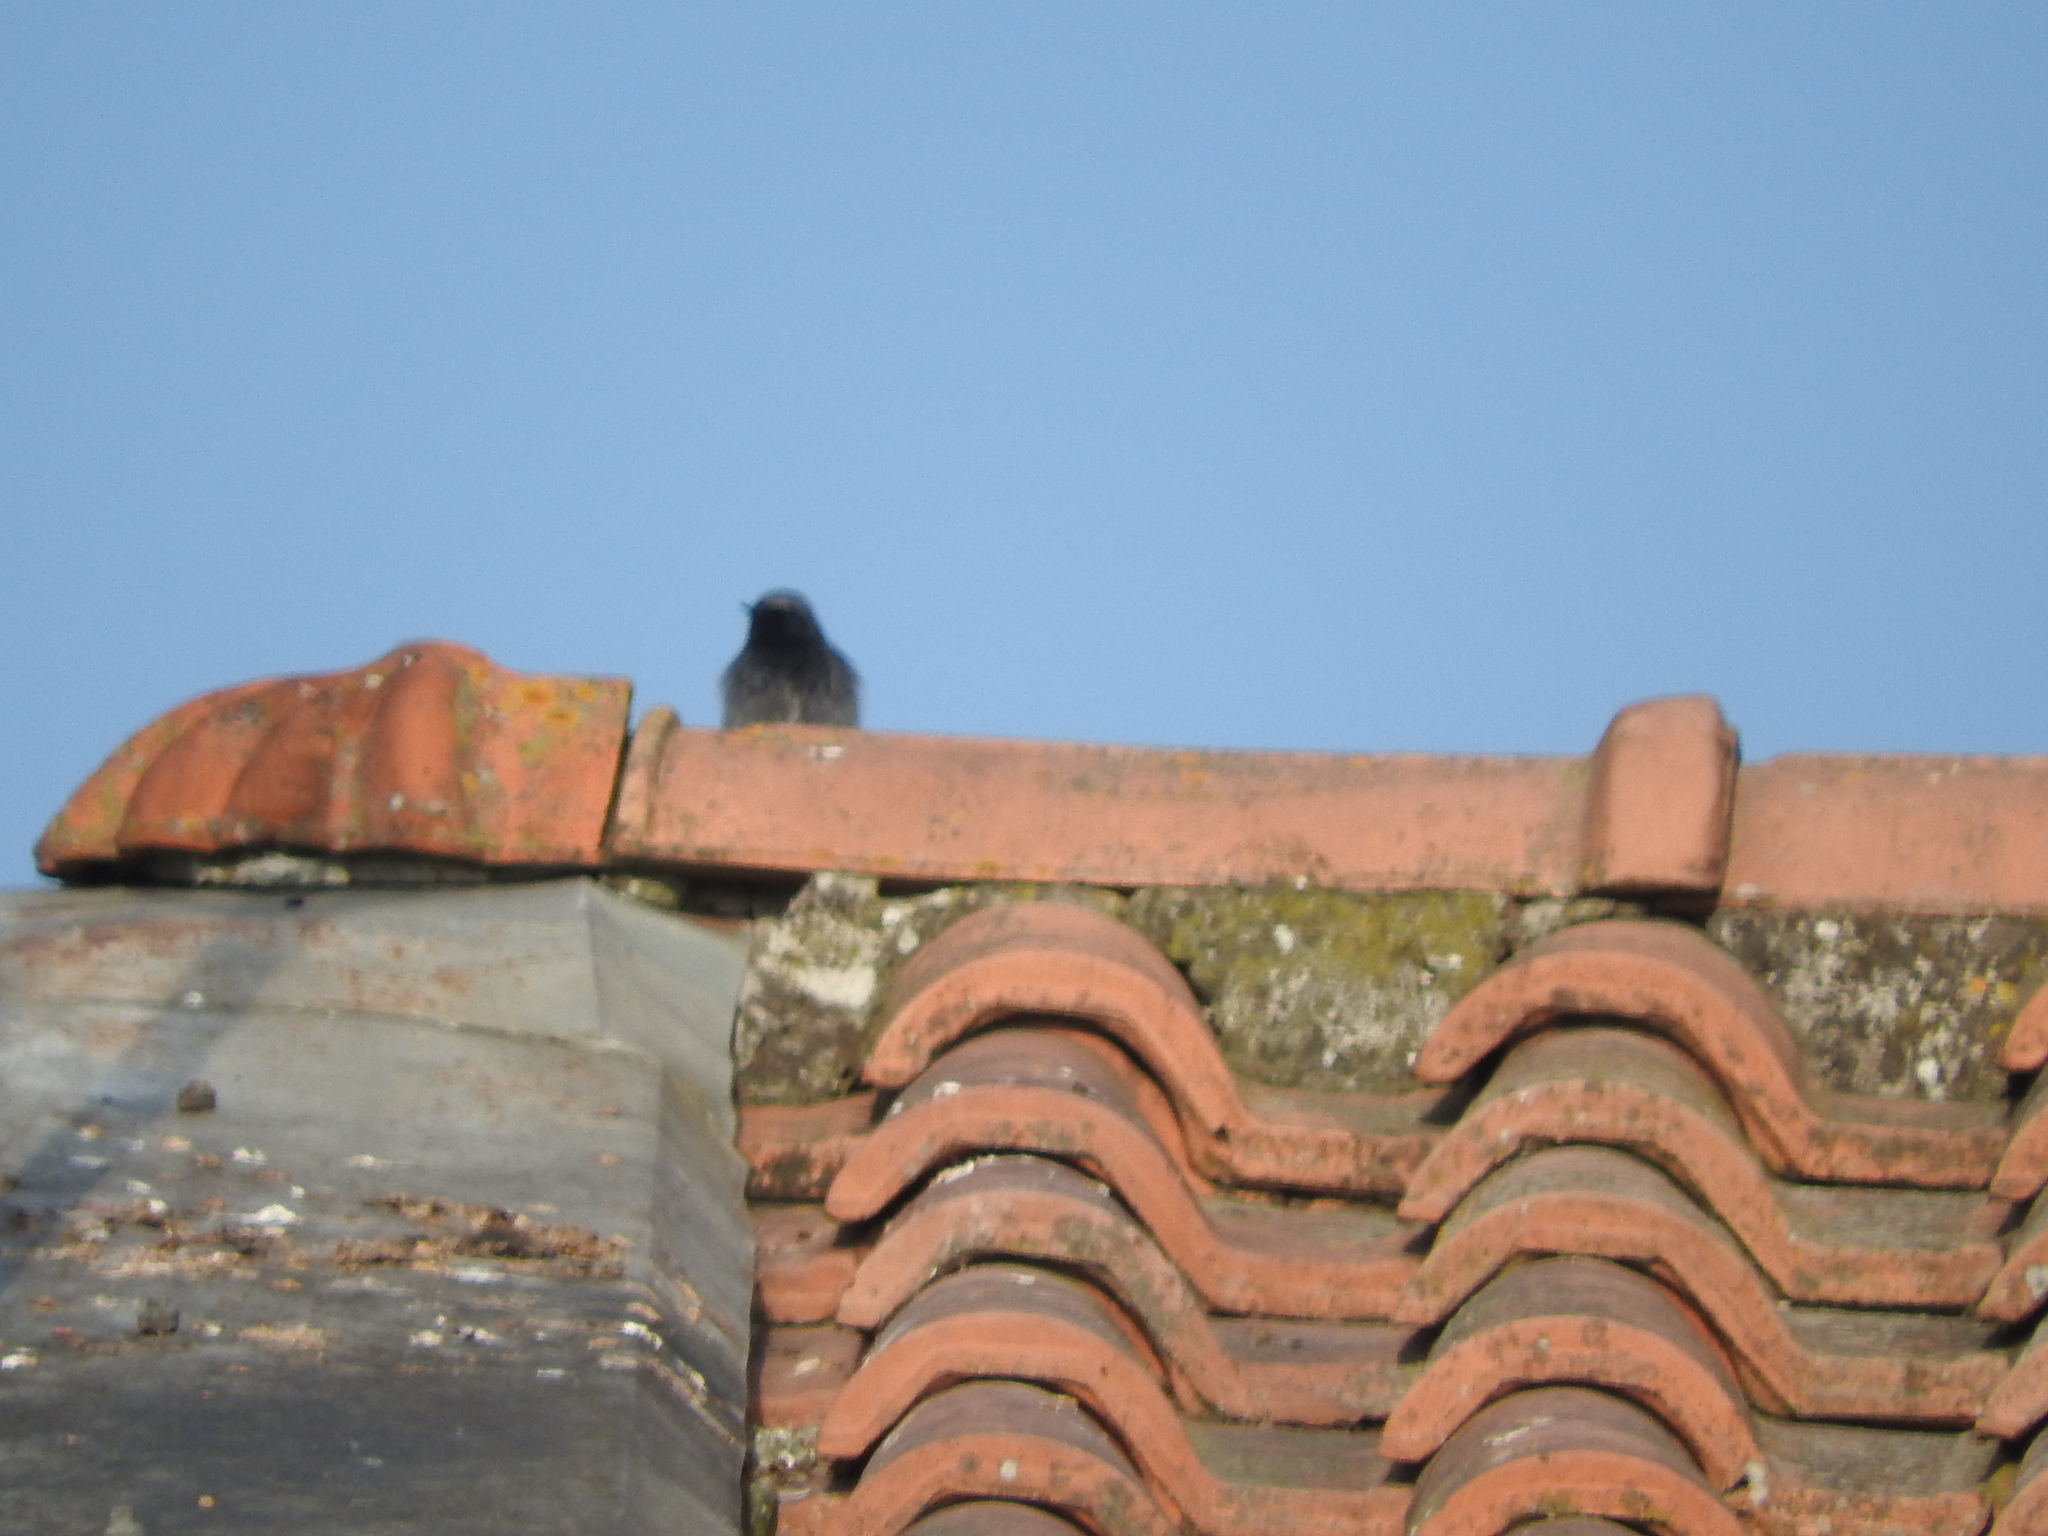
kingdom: Animalia
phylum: Chordata
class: Aves
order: Passeriformes
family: Muscicapidae
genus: Phoenicurus
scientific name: Phoenicurus ochruros
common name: Black redstart
